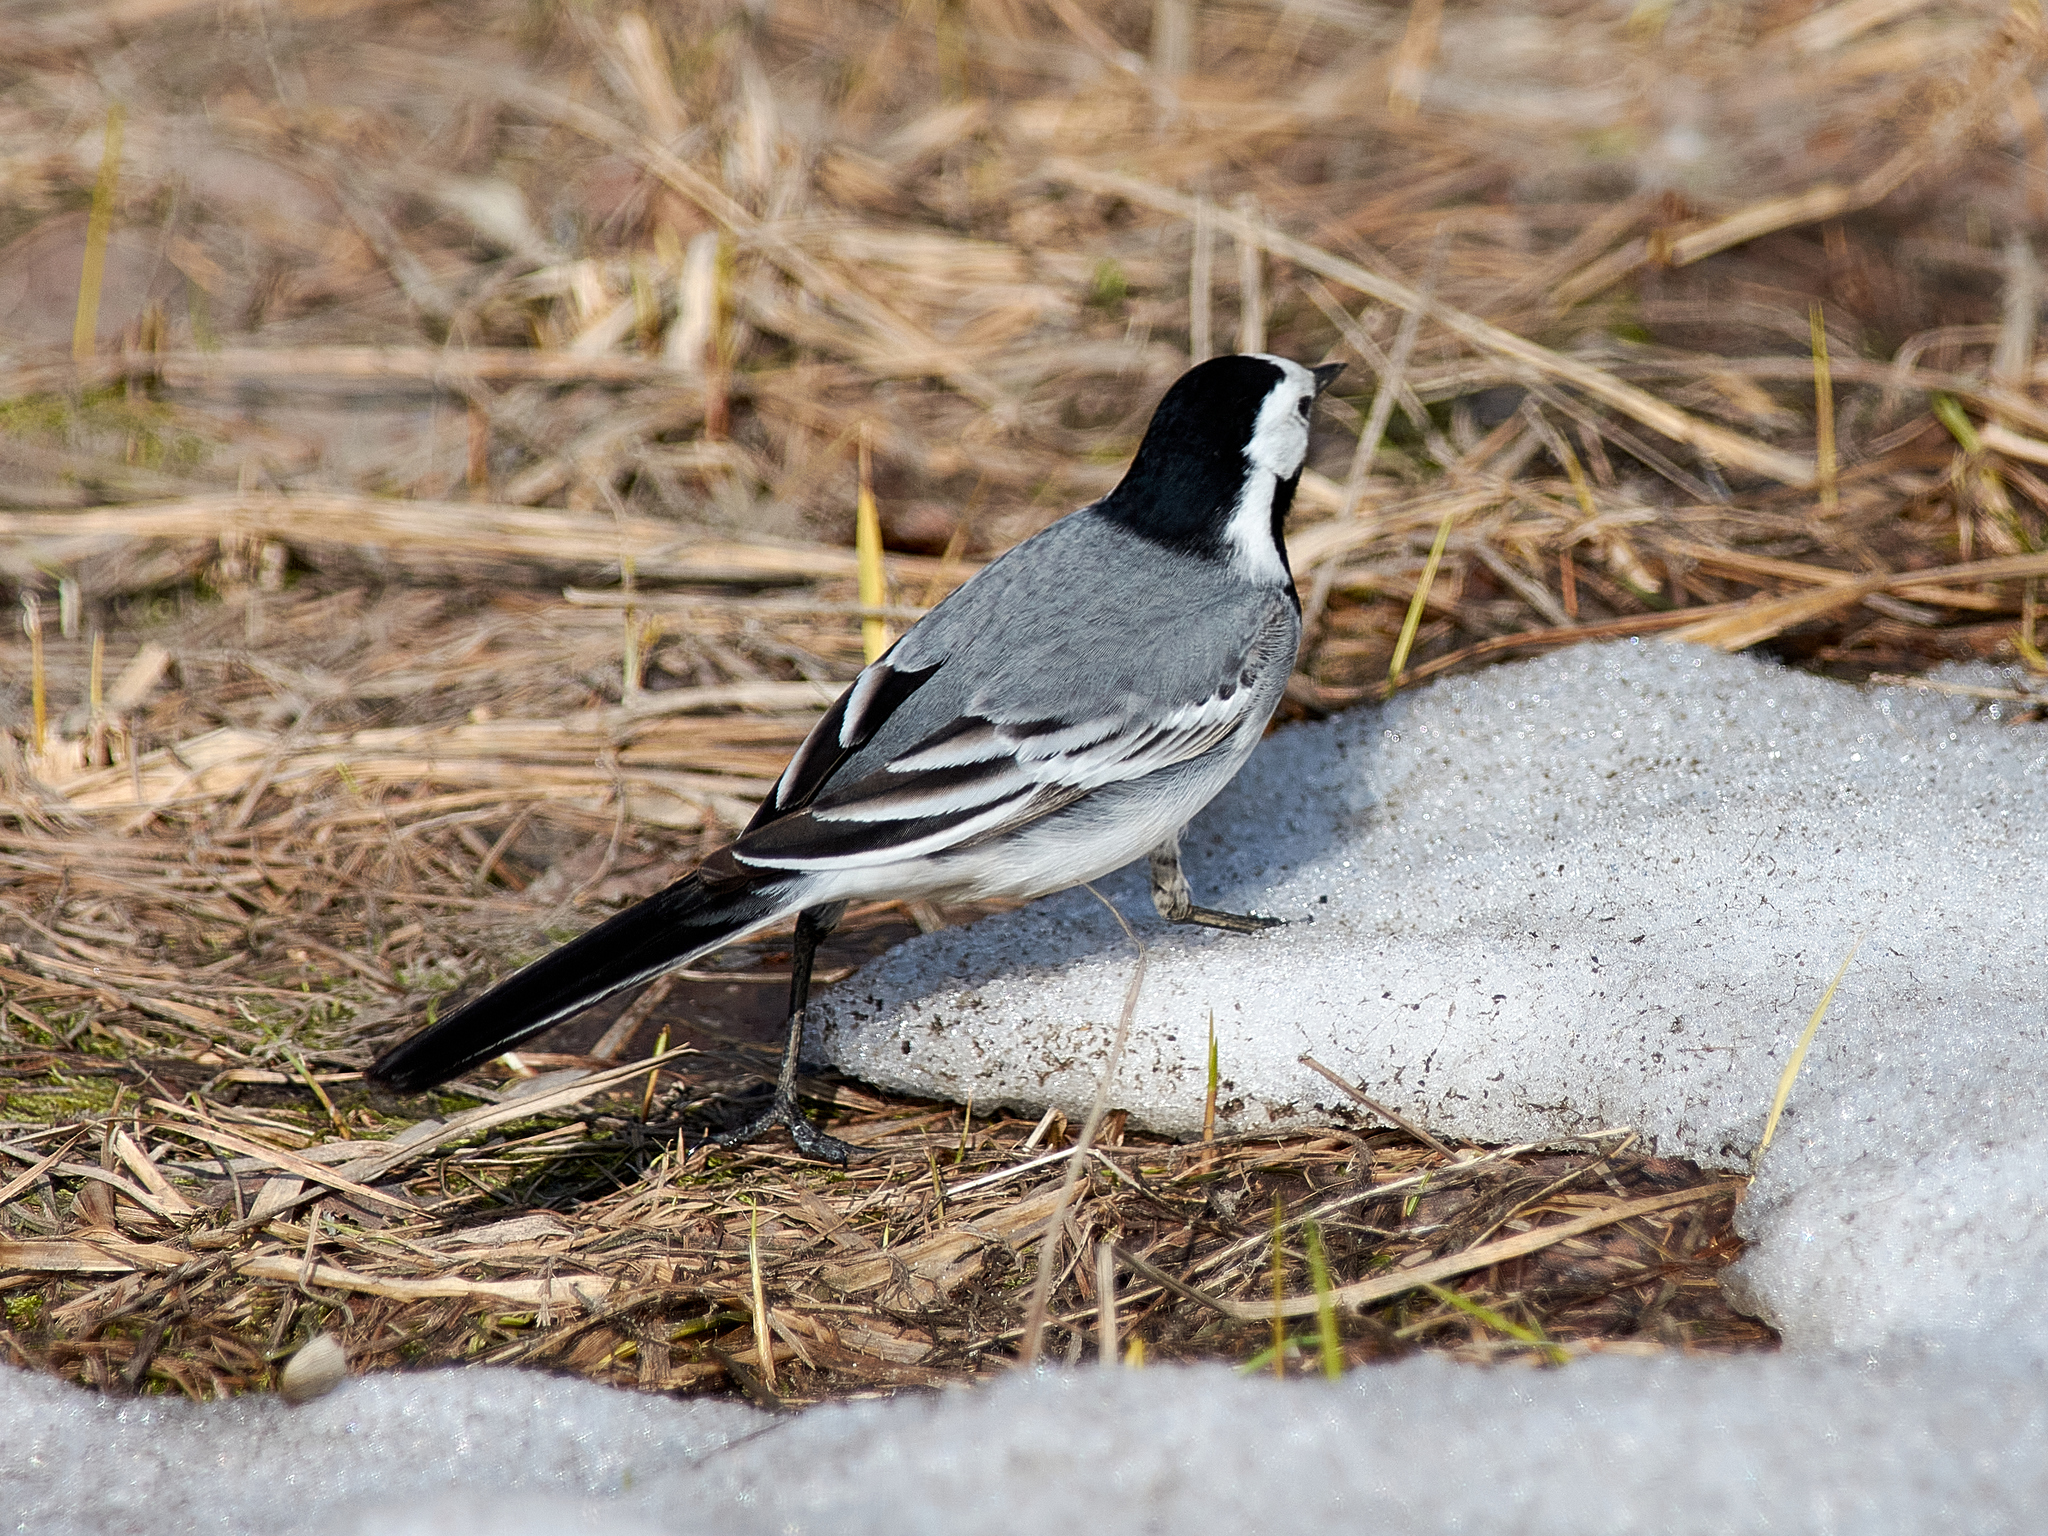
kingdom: Animalia
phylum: Chordata
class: Aves
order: Passeriformes
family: Motacillidae
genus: Motacilla
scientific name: Motacilla alba
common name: White wagtail
